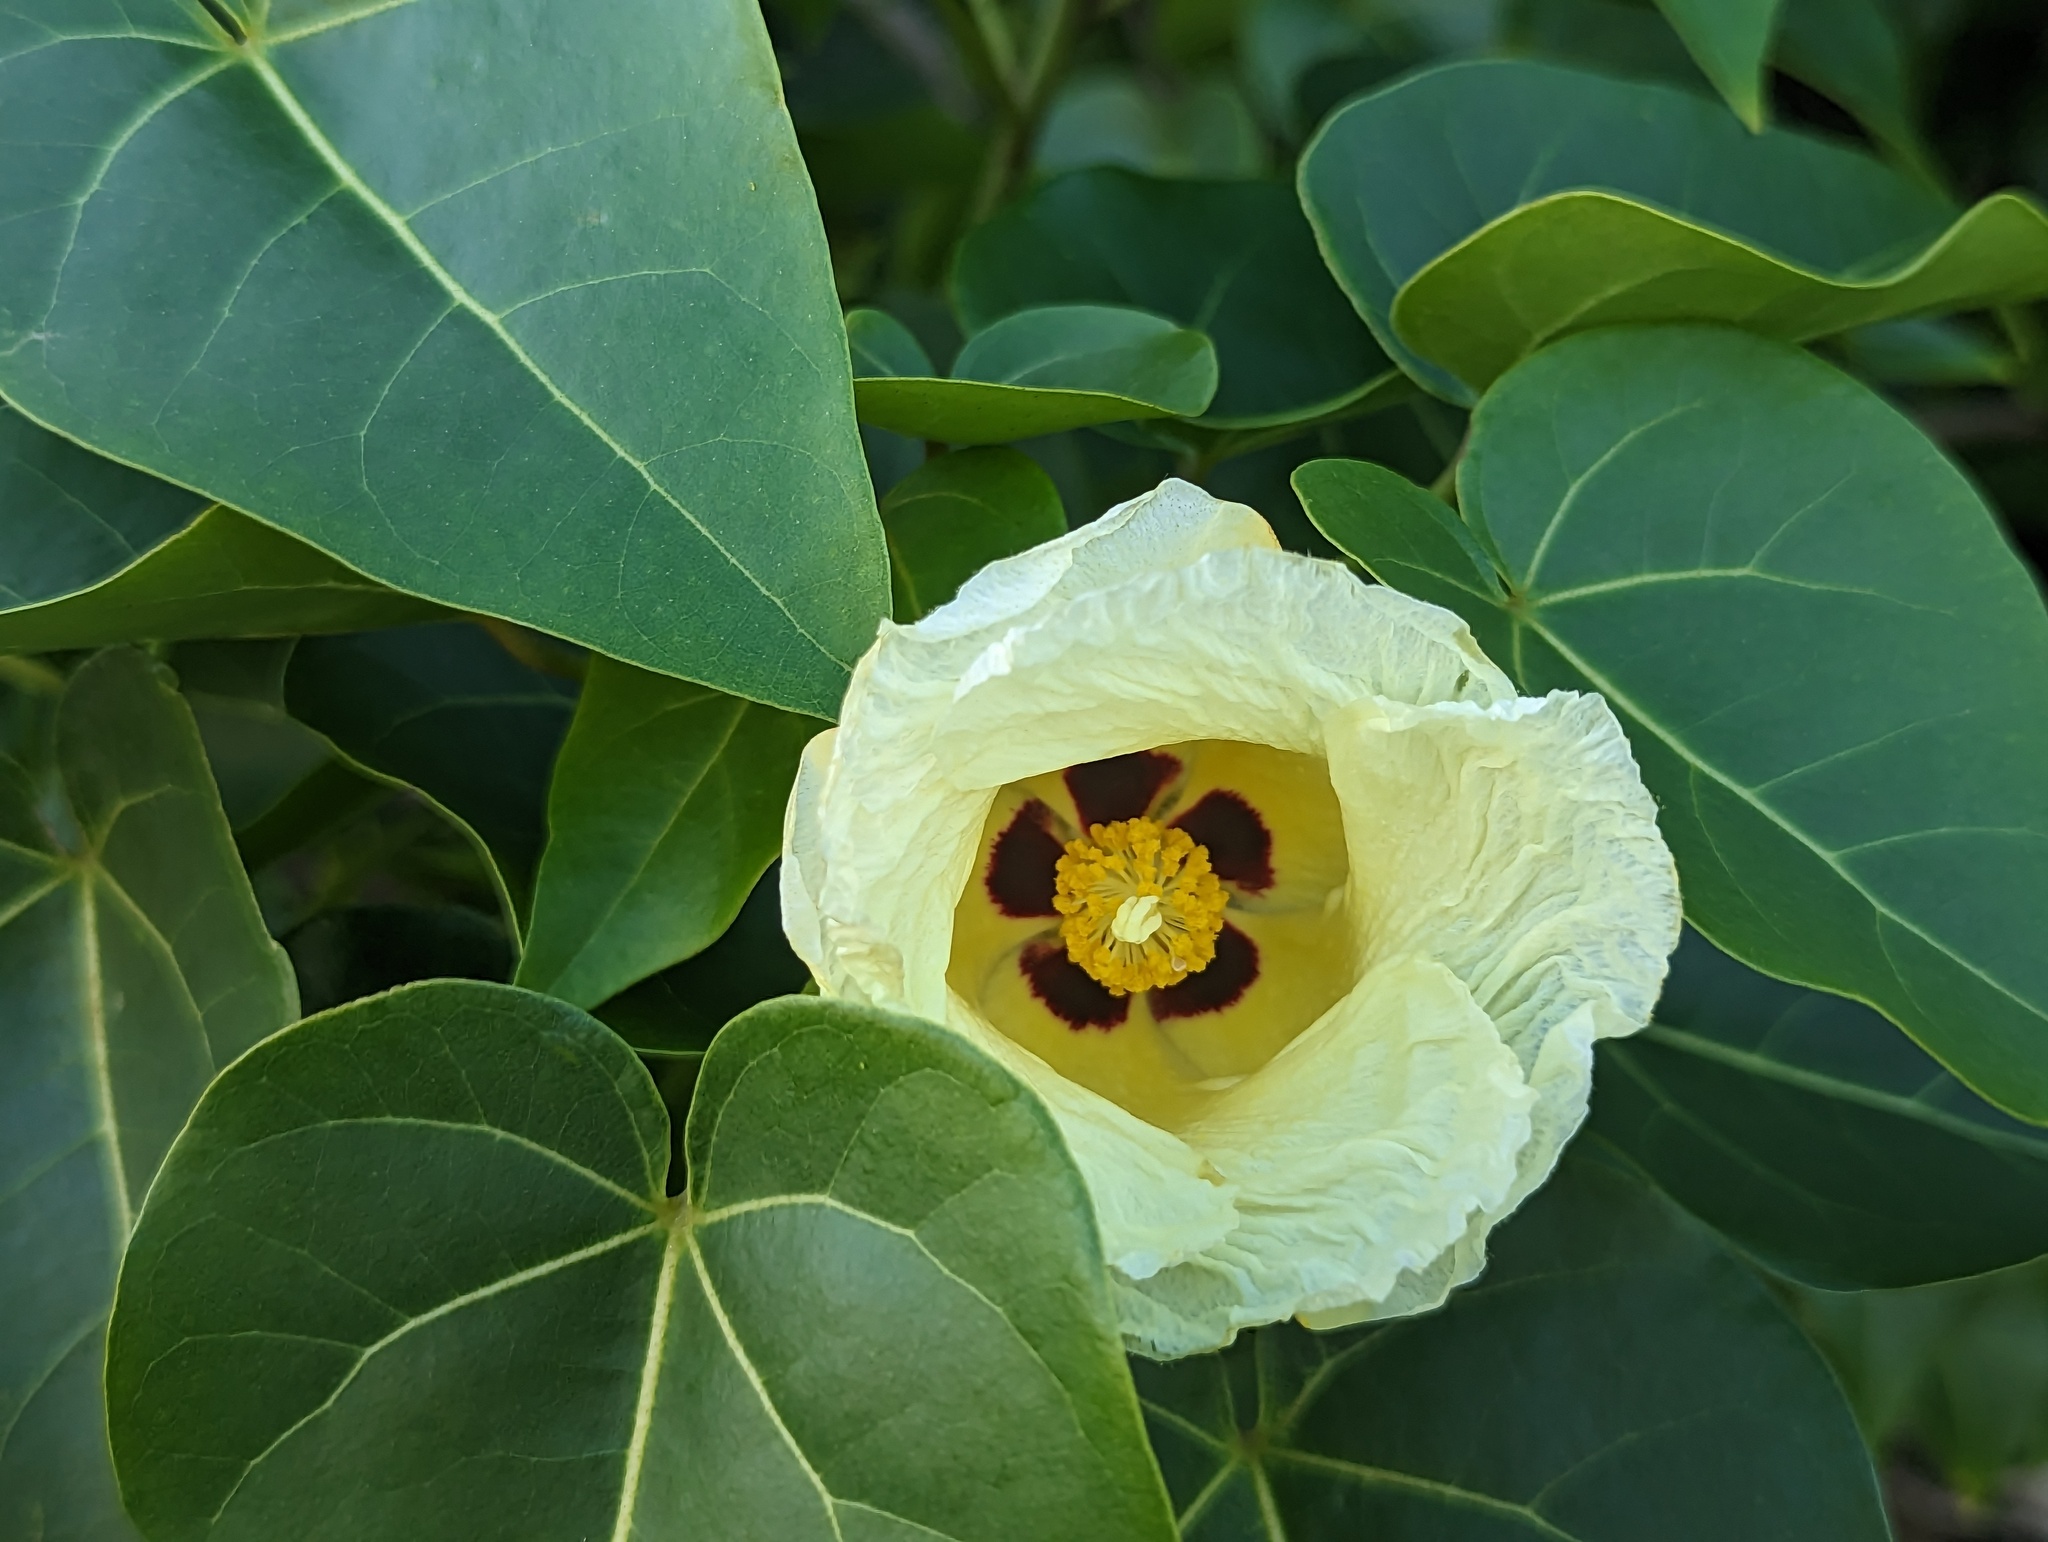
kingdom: Plantae
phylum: Tracheophyta
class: Magnoliopsida
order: Malvales
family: Malvaceae
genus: Thespesia
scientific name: Thespesia populnea
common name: Seaside mahoe
